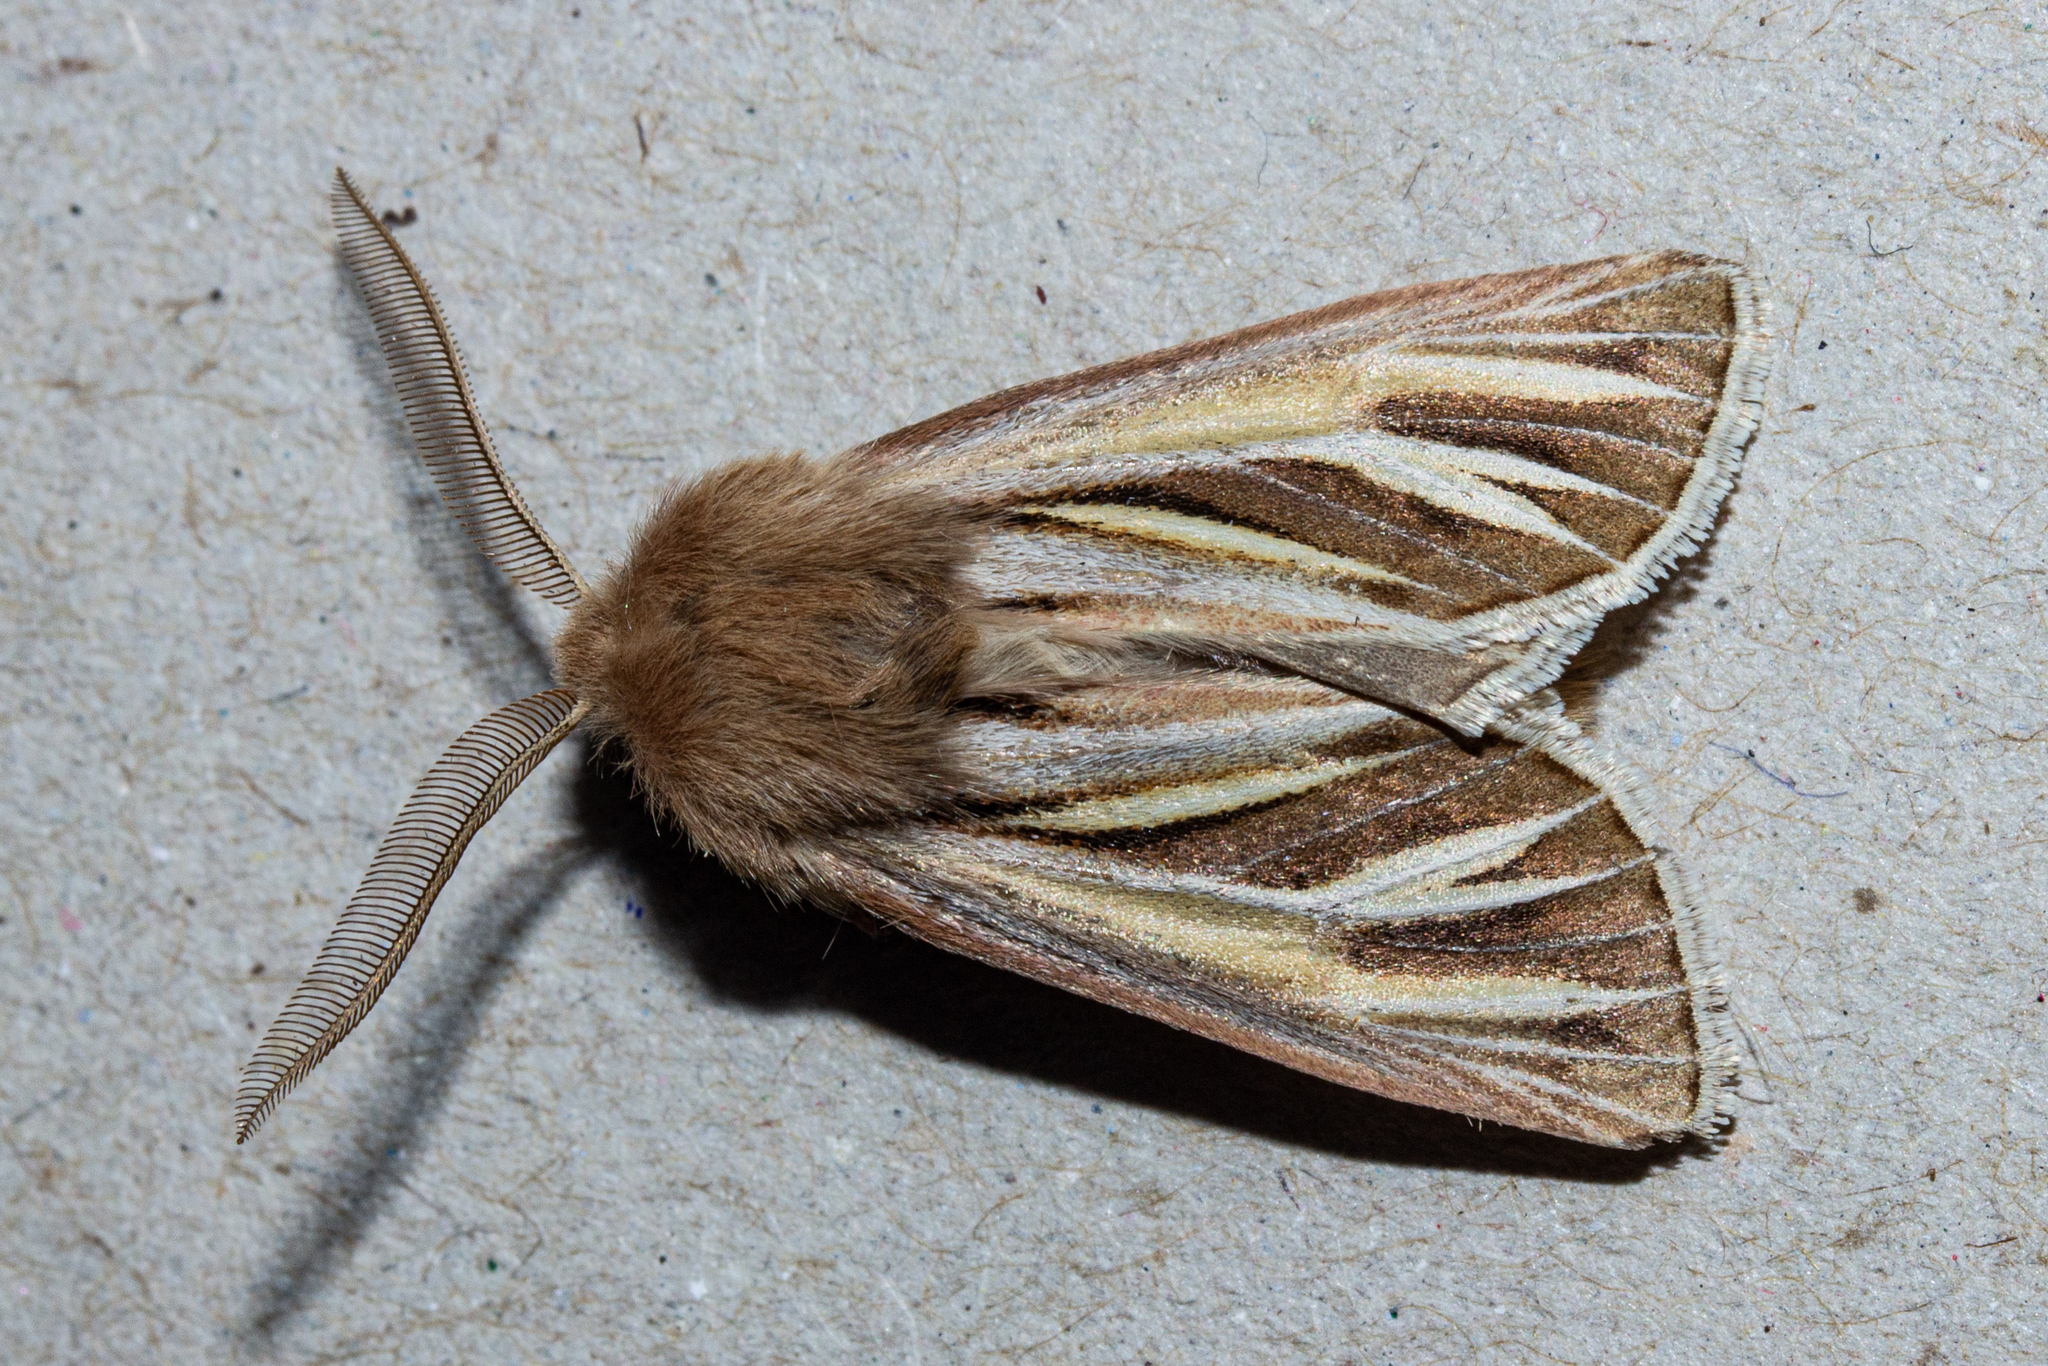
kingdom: Animalia
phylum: Arthropoda
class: Insecta
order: Lepidoptera
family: Noctuidae
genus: Ichneutica
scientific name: Ichneutica caraunias
